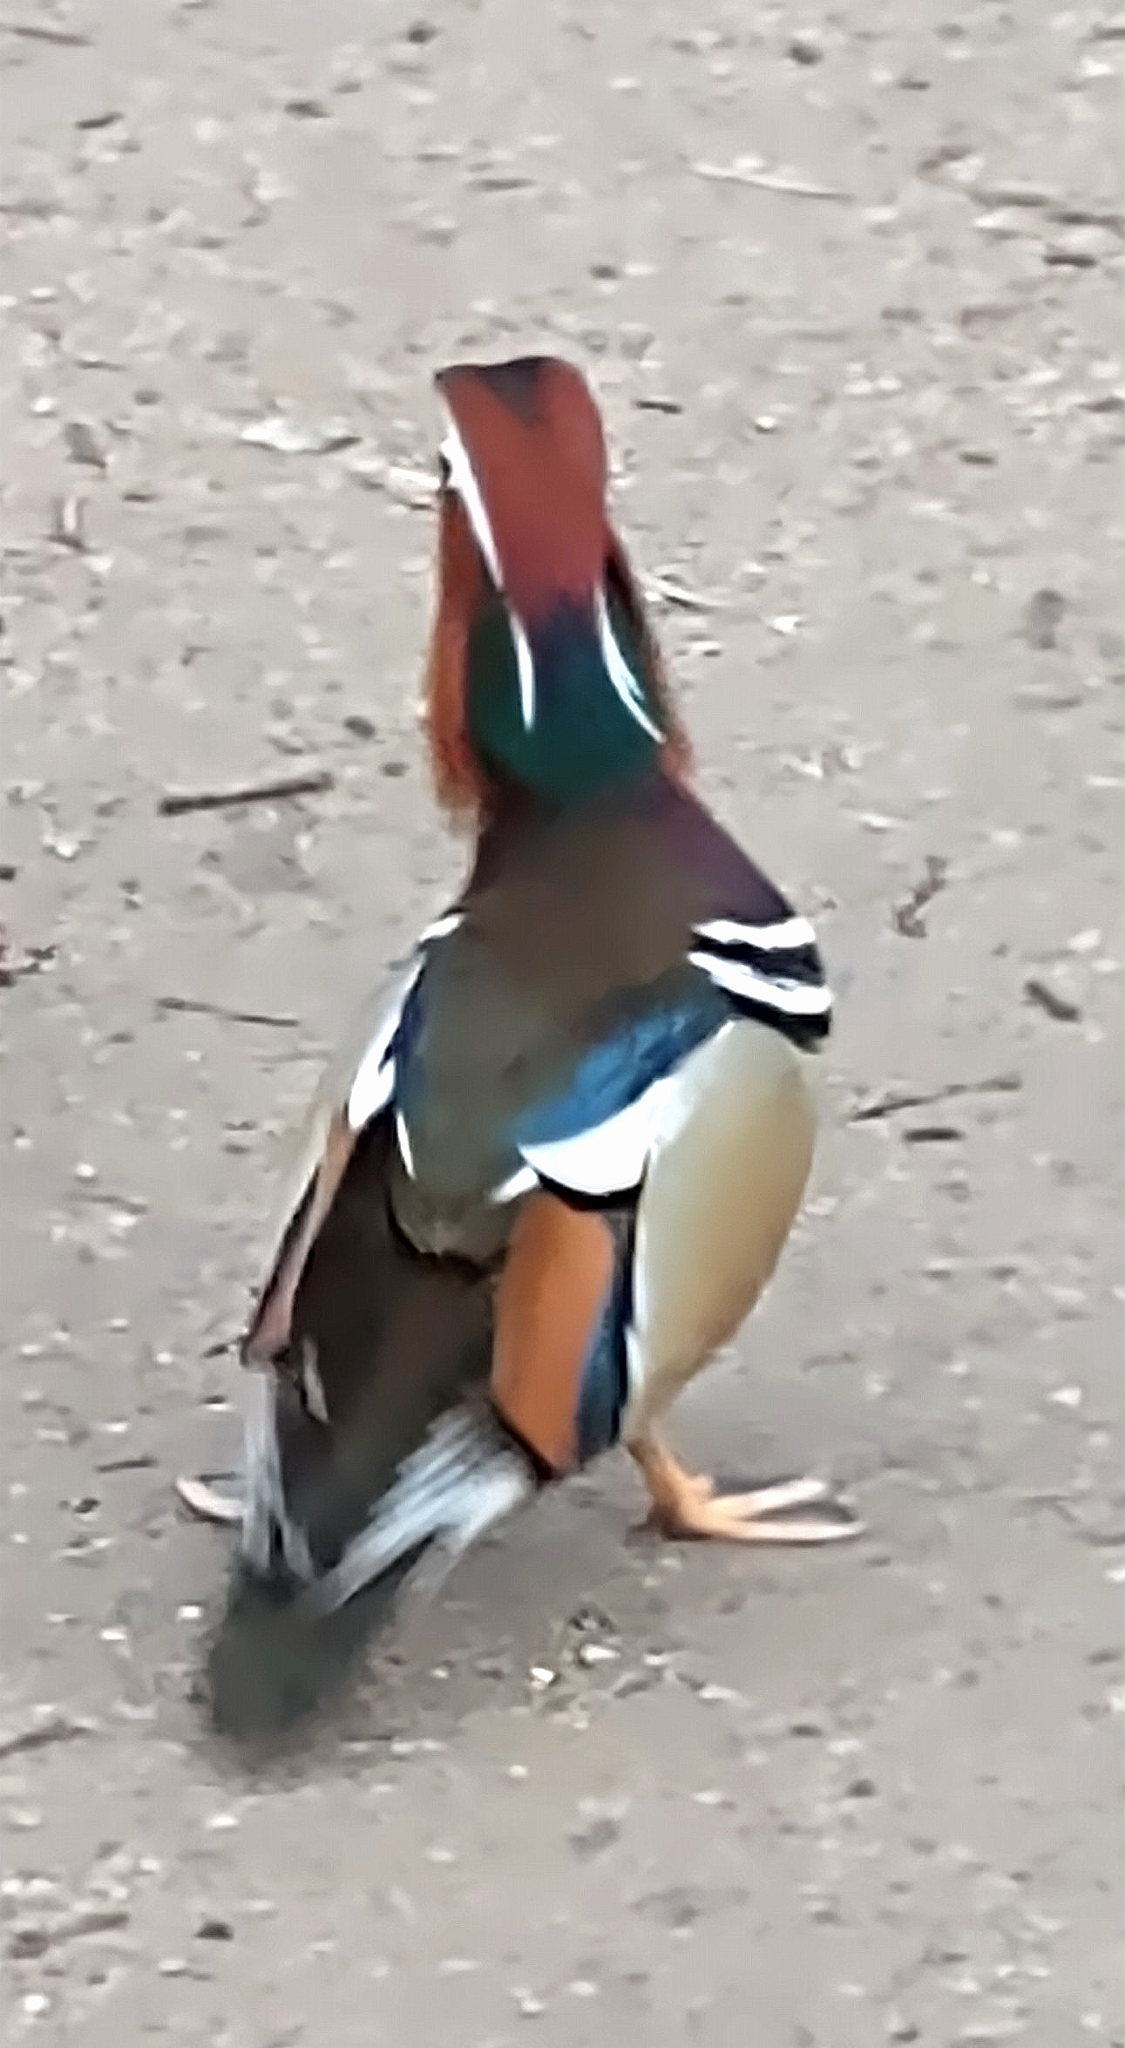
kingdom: Animalia
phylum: Chordata
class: Aves
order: Anseriformes
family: Anatidae
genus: Aix
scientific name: Aix galericulata
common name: Mandarin duck
